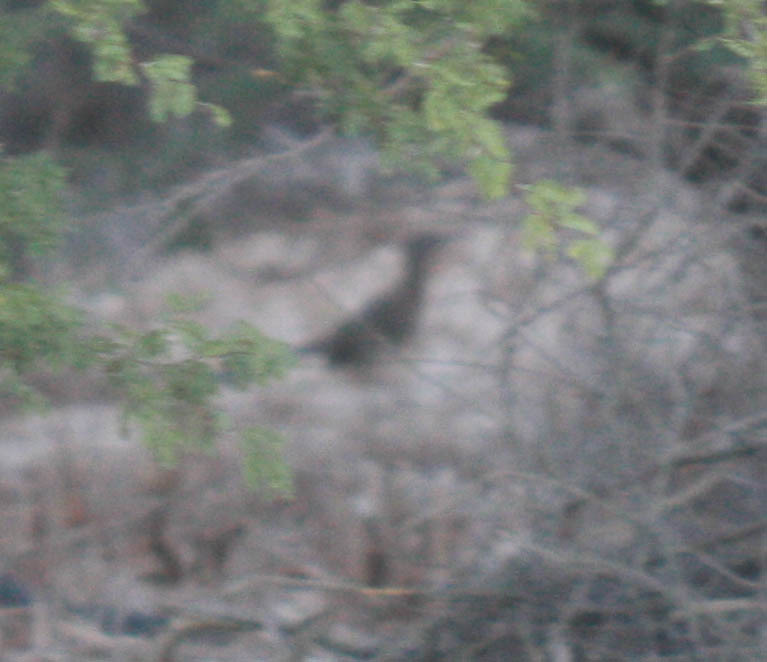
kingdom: Animalia
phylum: Chordata
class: Aves
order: Cuculiformes
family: Cuculidae
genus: Geococcyx
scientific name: Geococcyx californianus
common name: Greater roadrunner
